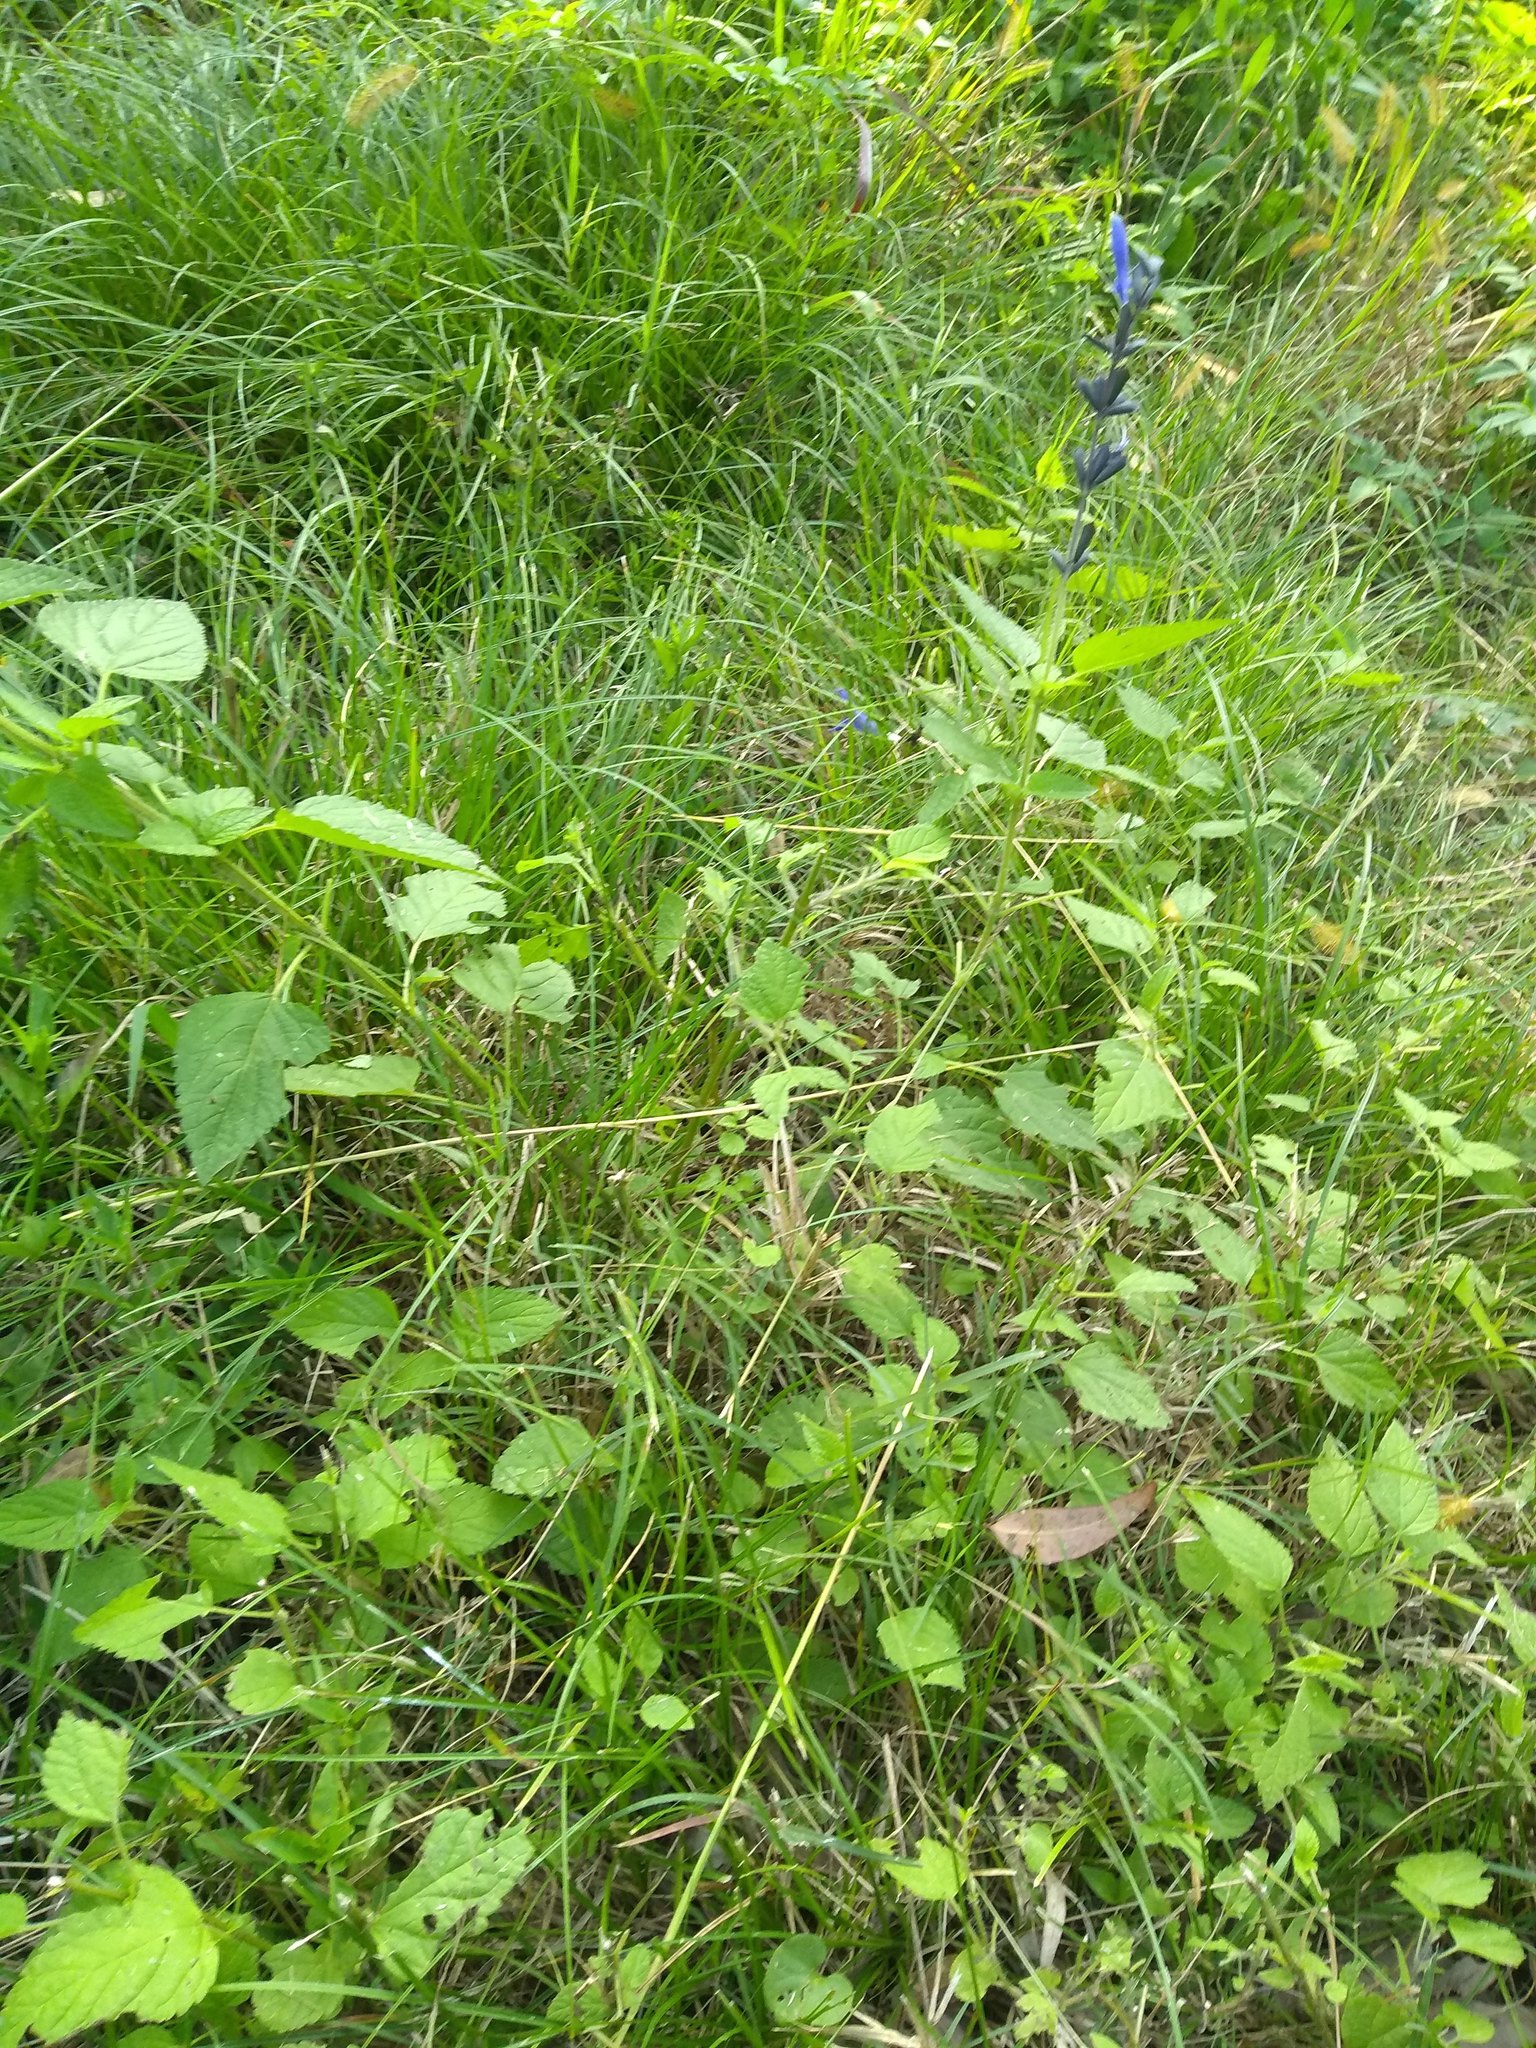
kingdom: Plantae
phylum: Tracheophyta
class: Magnoliopsida
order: Lamiales
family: Lamiaceae
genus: Salvia
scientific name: Salvia guaranitica
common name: Anise-scented sage
